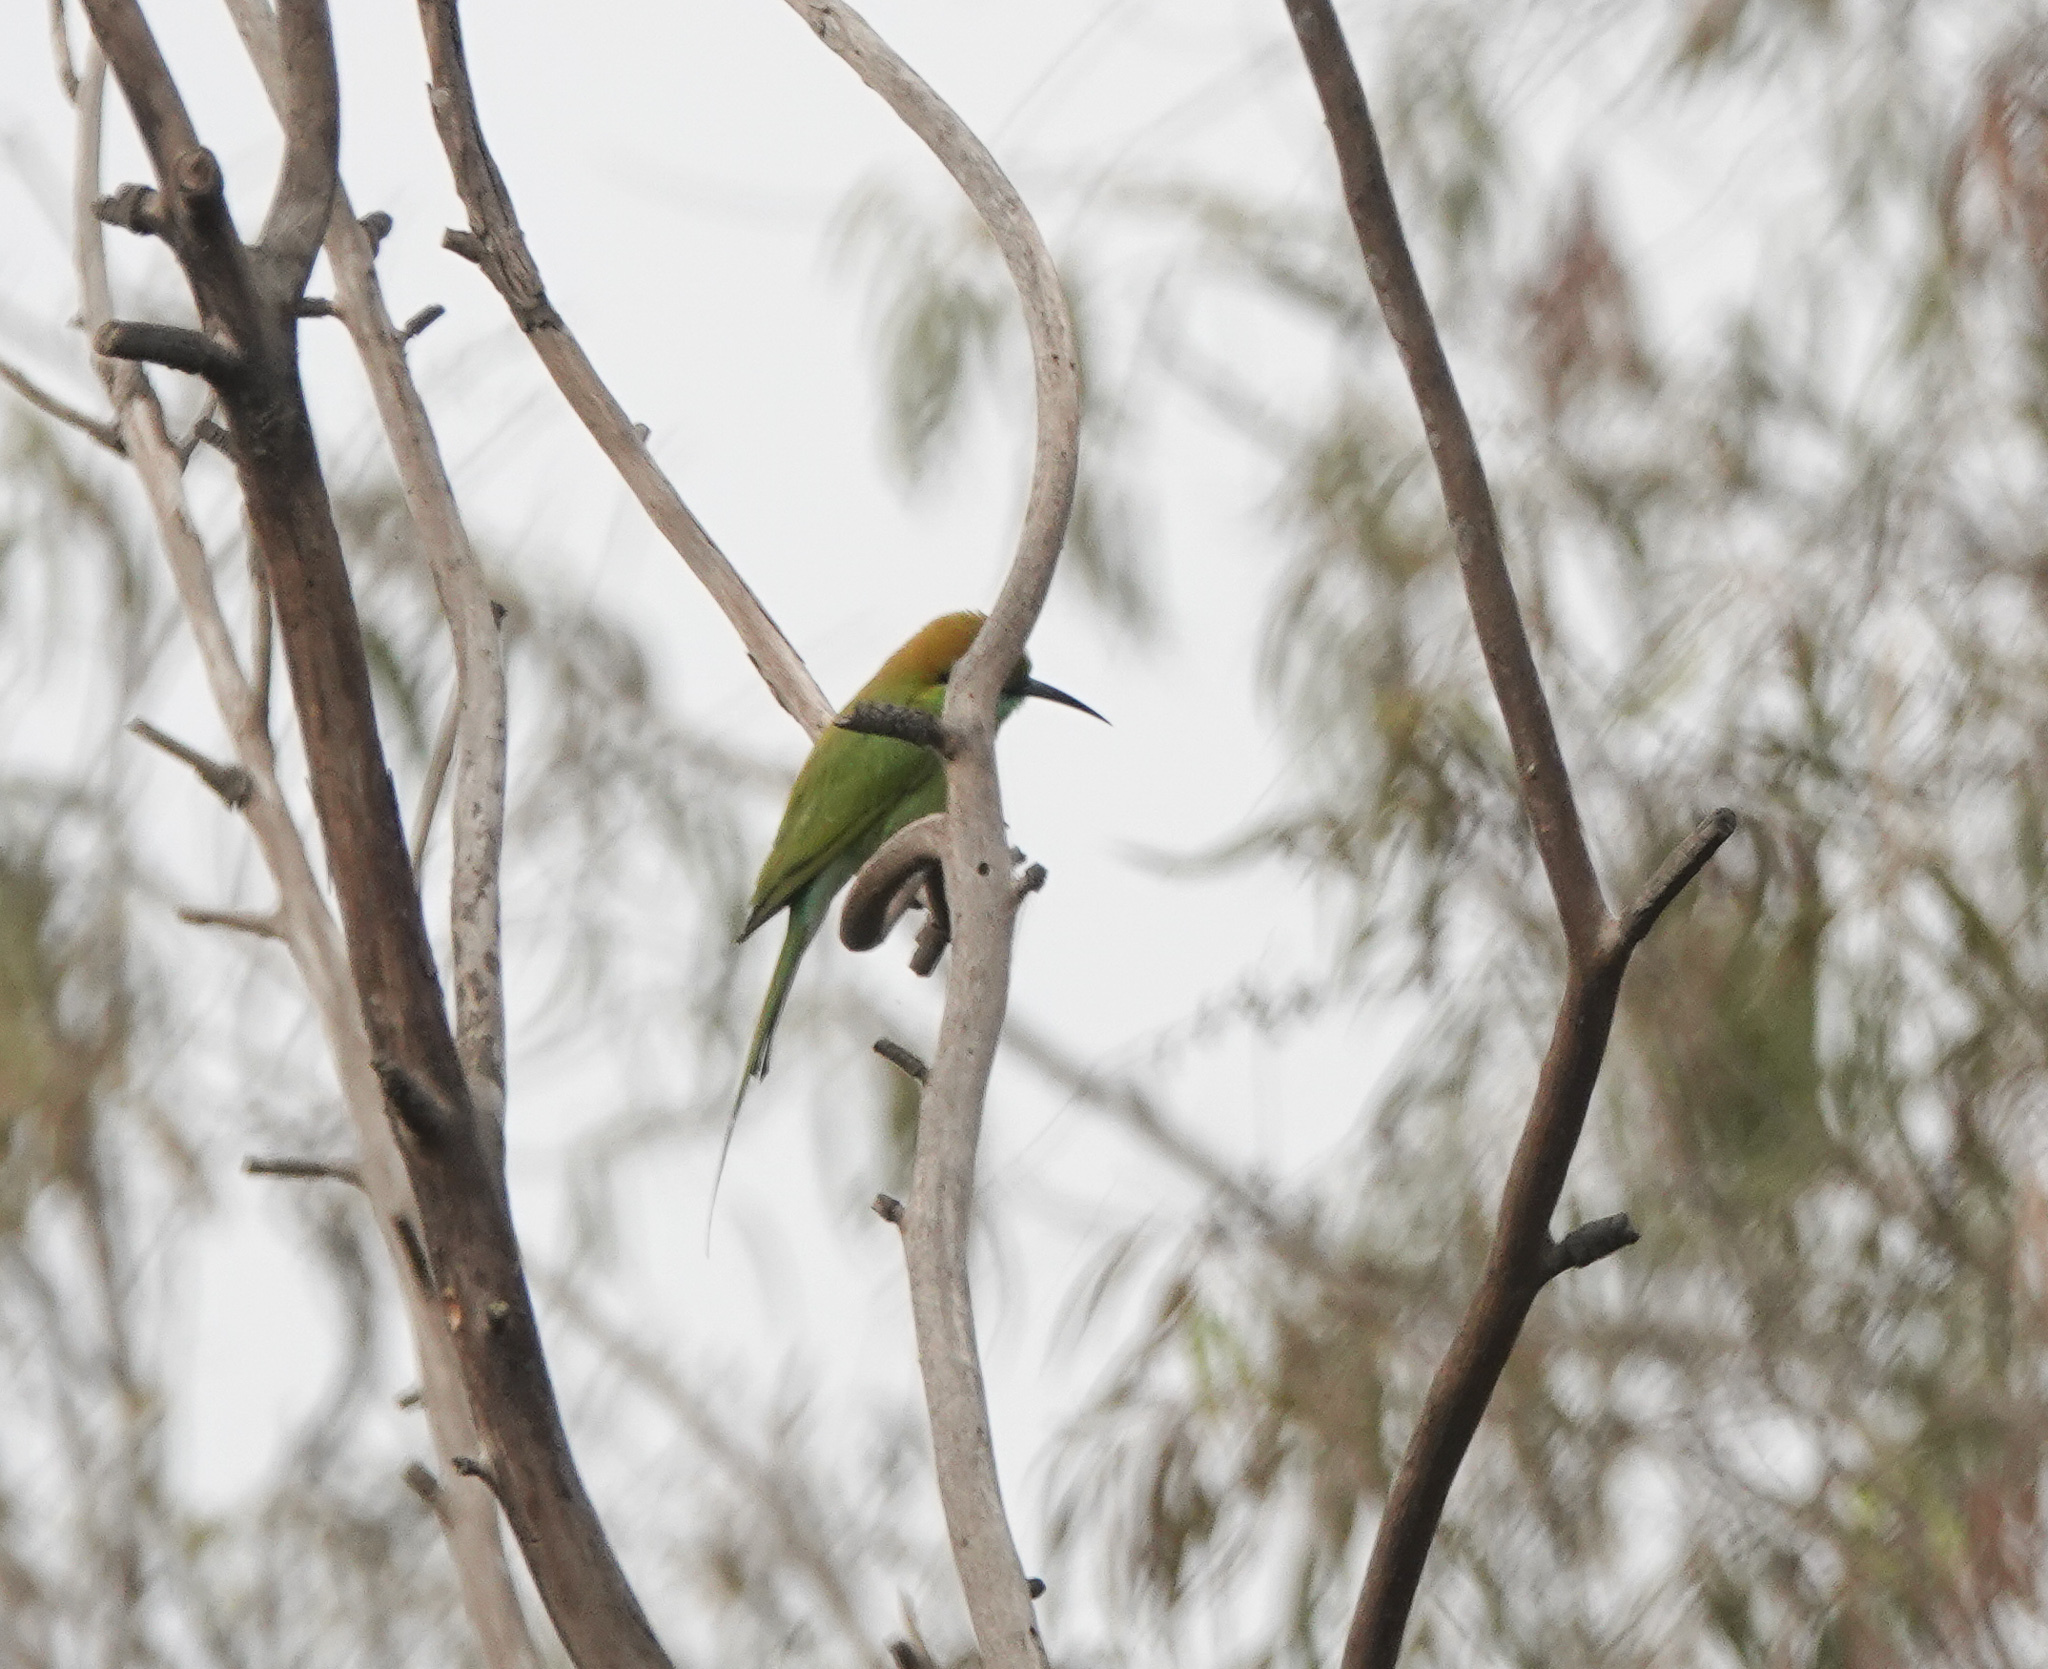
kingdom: Animalia
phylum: Chordata
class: Aves
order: Coraciiformes
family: Meropidae
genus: Merops
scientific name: Merops orientalis
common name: Green bee-eater
